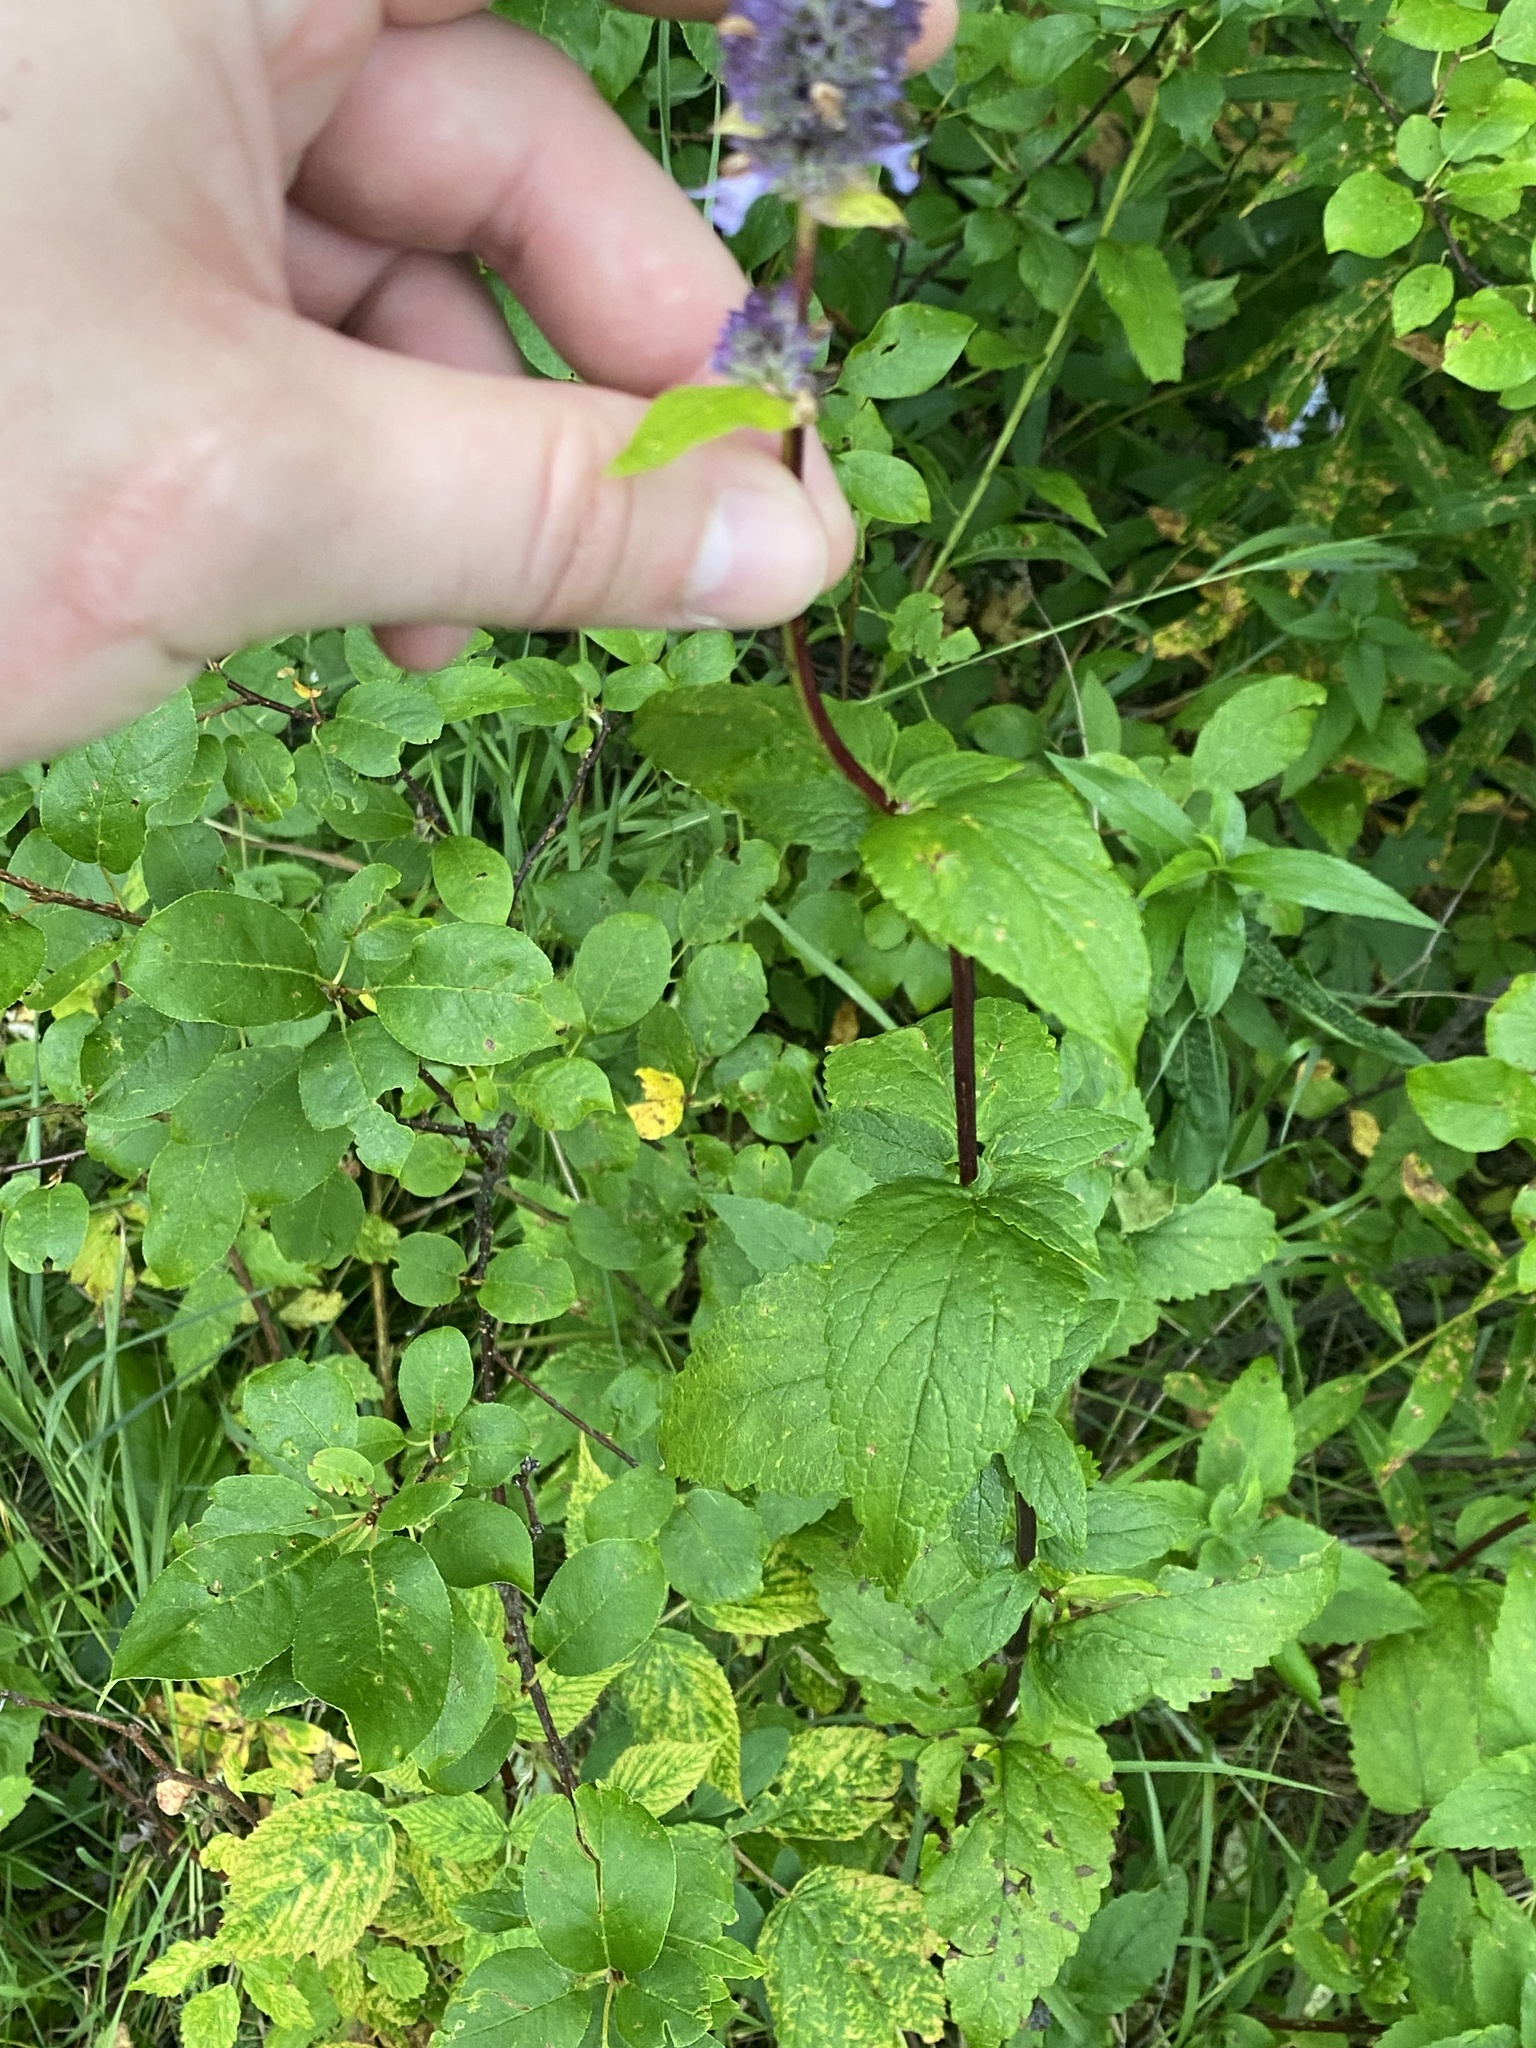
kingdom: Plantae
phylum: Tracheophyta
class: Magnoliopsida
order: Lamiales
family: Lamiaceae
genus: Agastache
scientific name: Agastache foeniculum
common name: Anise hyssop
